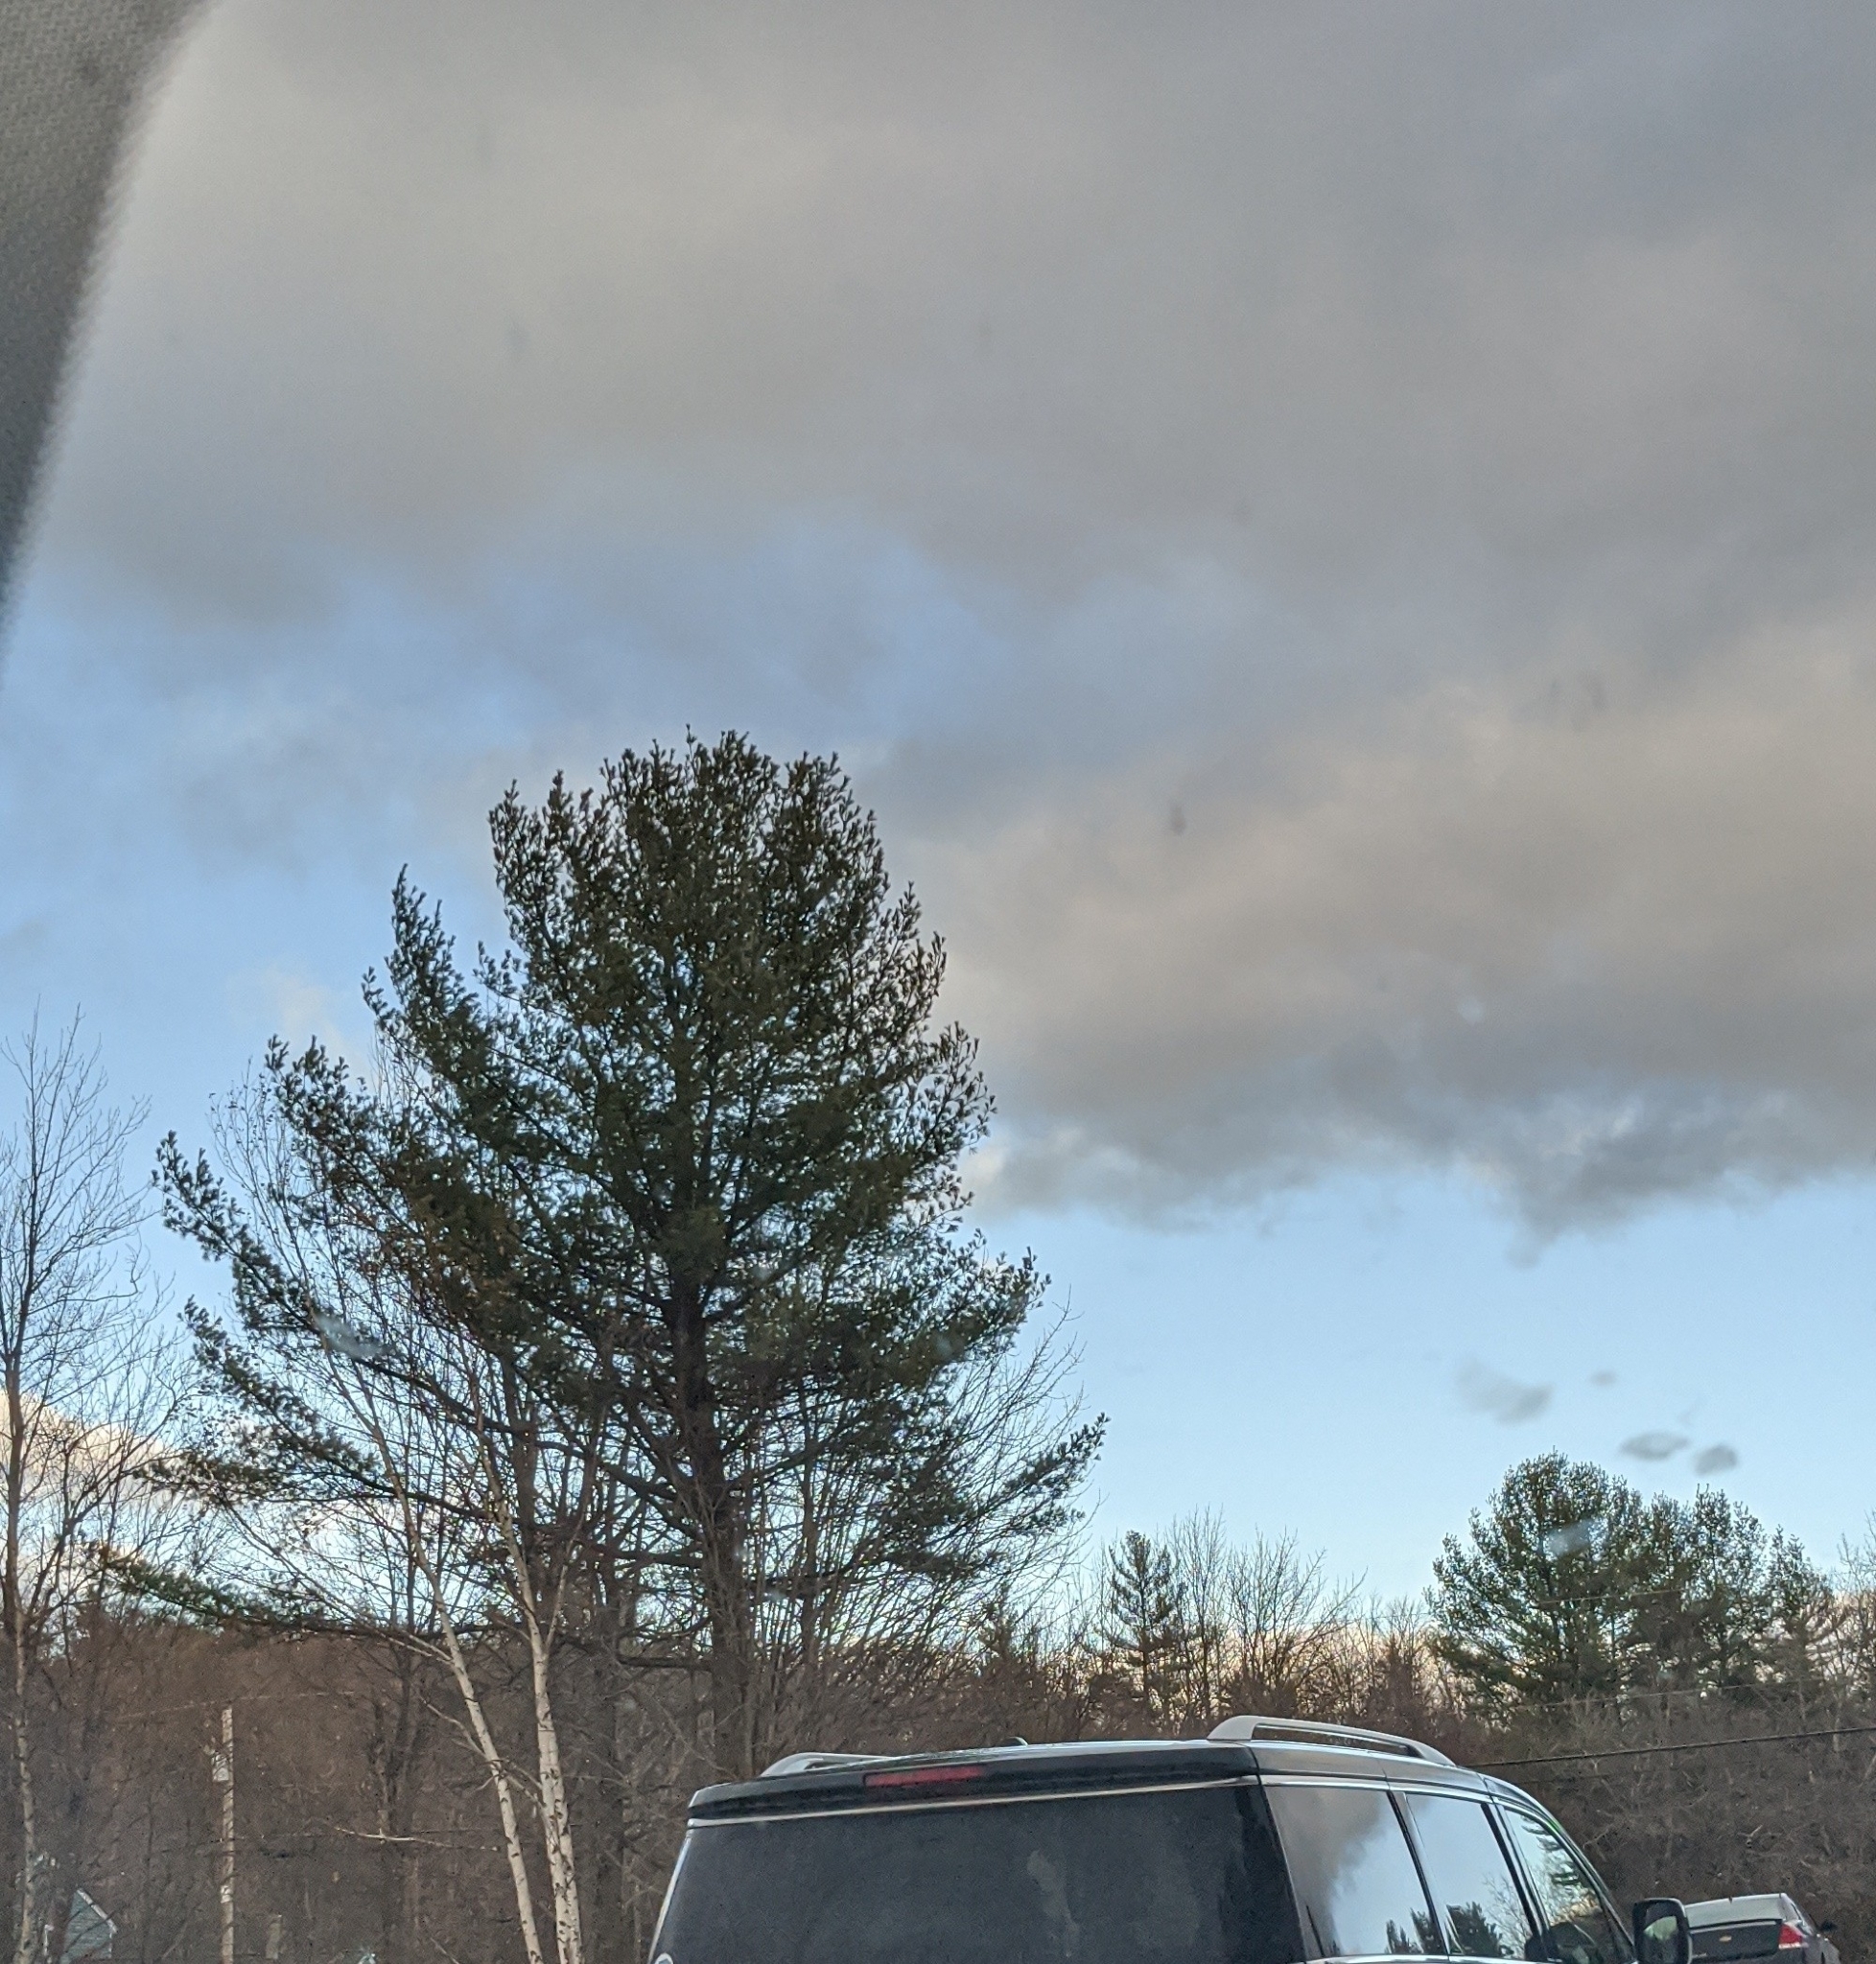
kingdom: Plantae
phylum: Tracheophyta
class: Pinopsida
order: Pinales
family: Pinaceae
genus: Pinus
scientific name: Pinus strobus
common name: Weymouth pine
